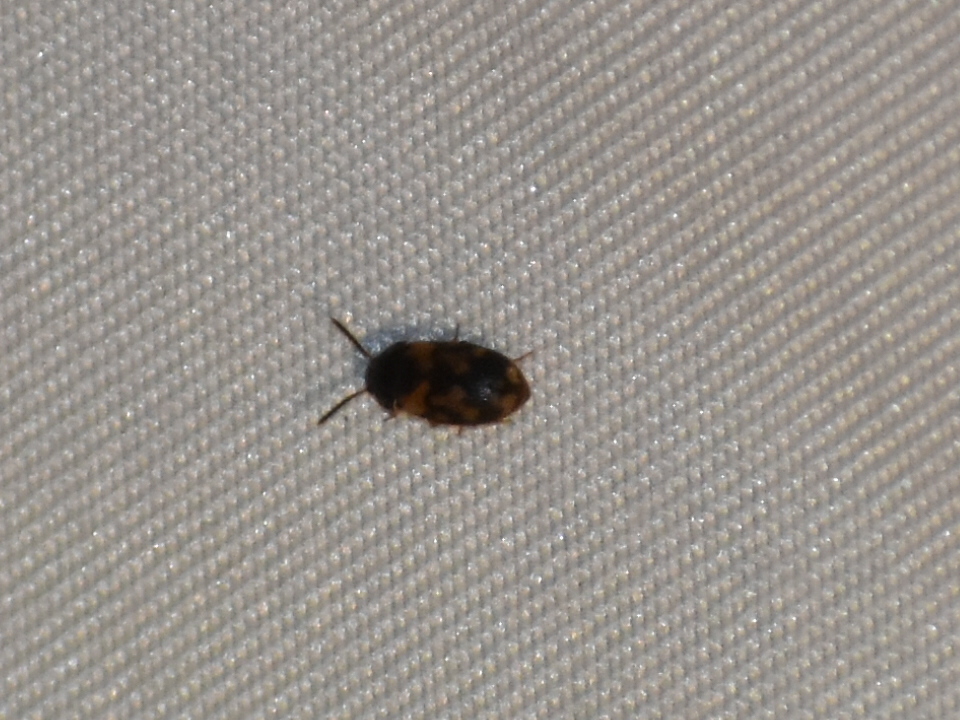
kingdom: Animalia
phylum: Arthropoda
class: Insecta
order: Coleoptera
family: Mycetophagidae
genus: Mycetophagus
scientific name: Mycetophagus serrulatus
